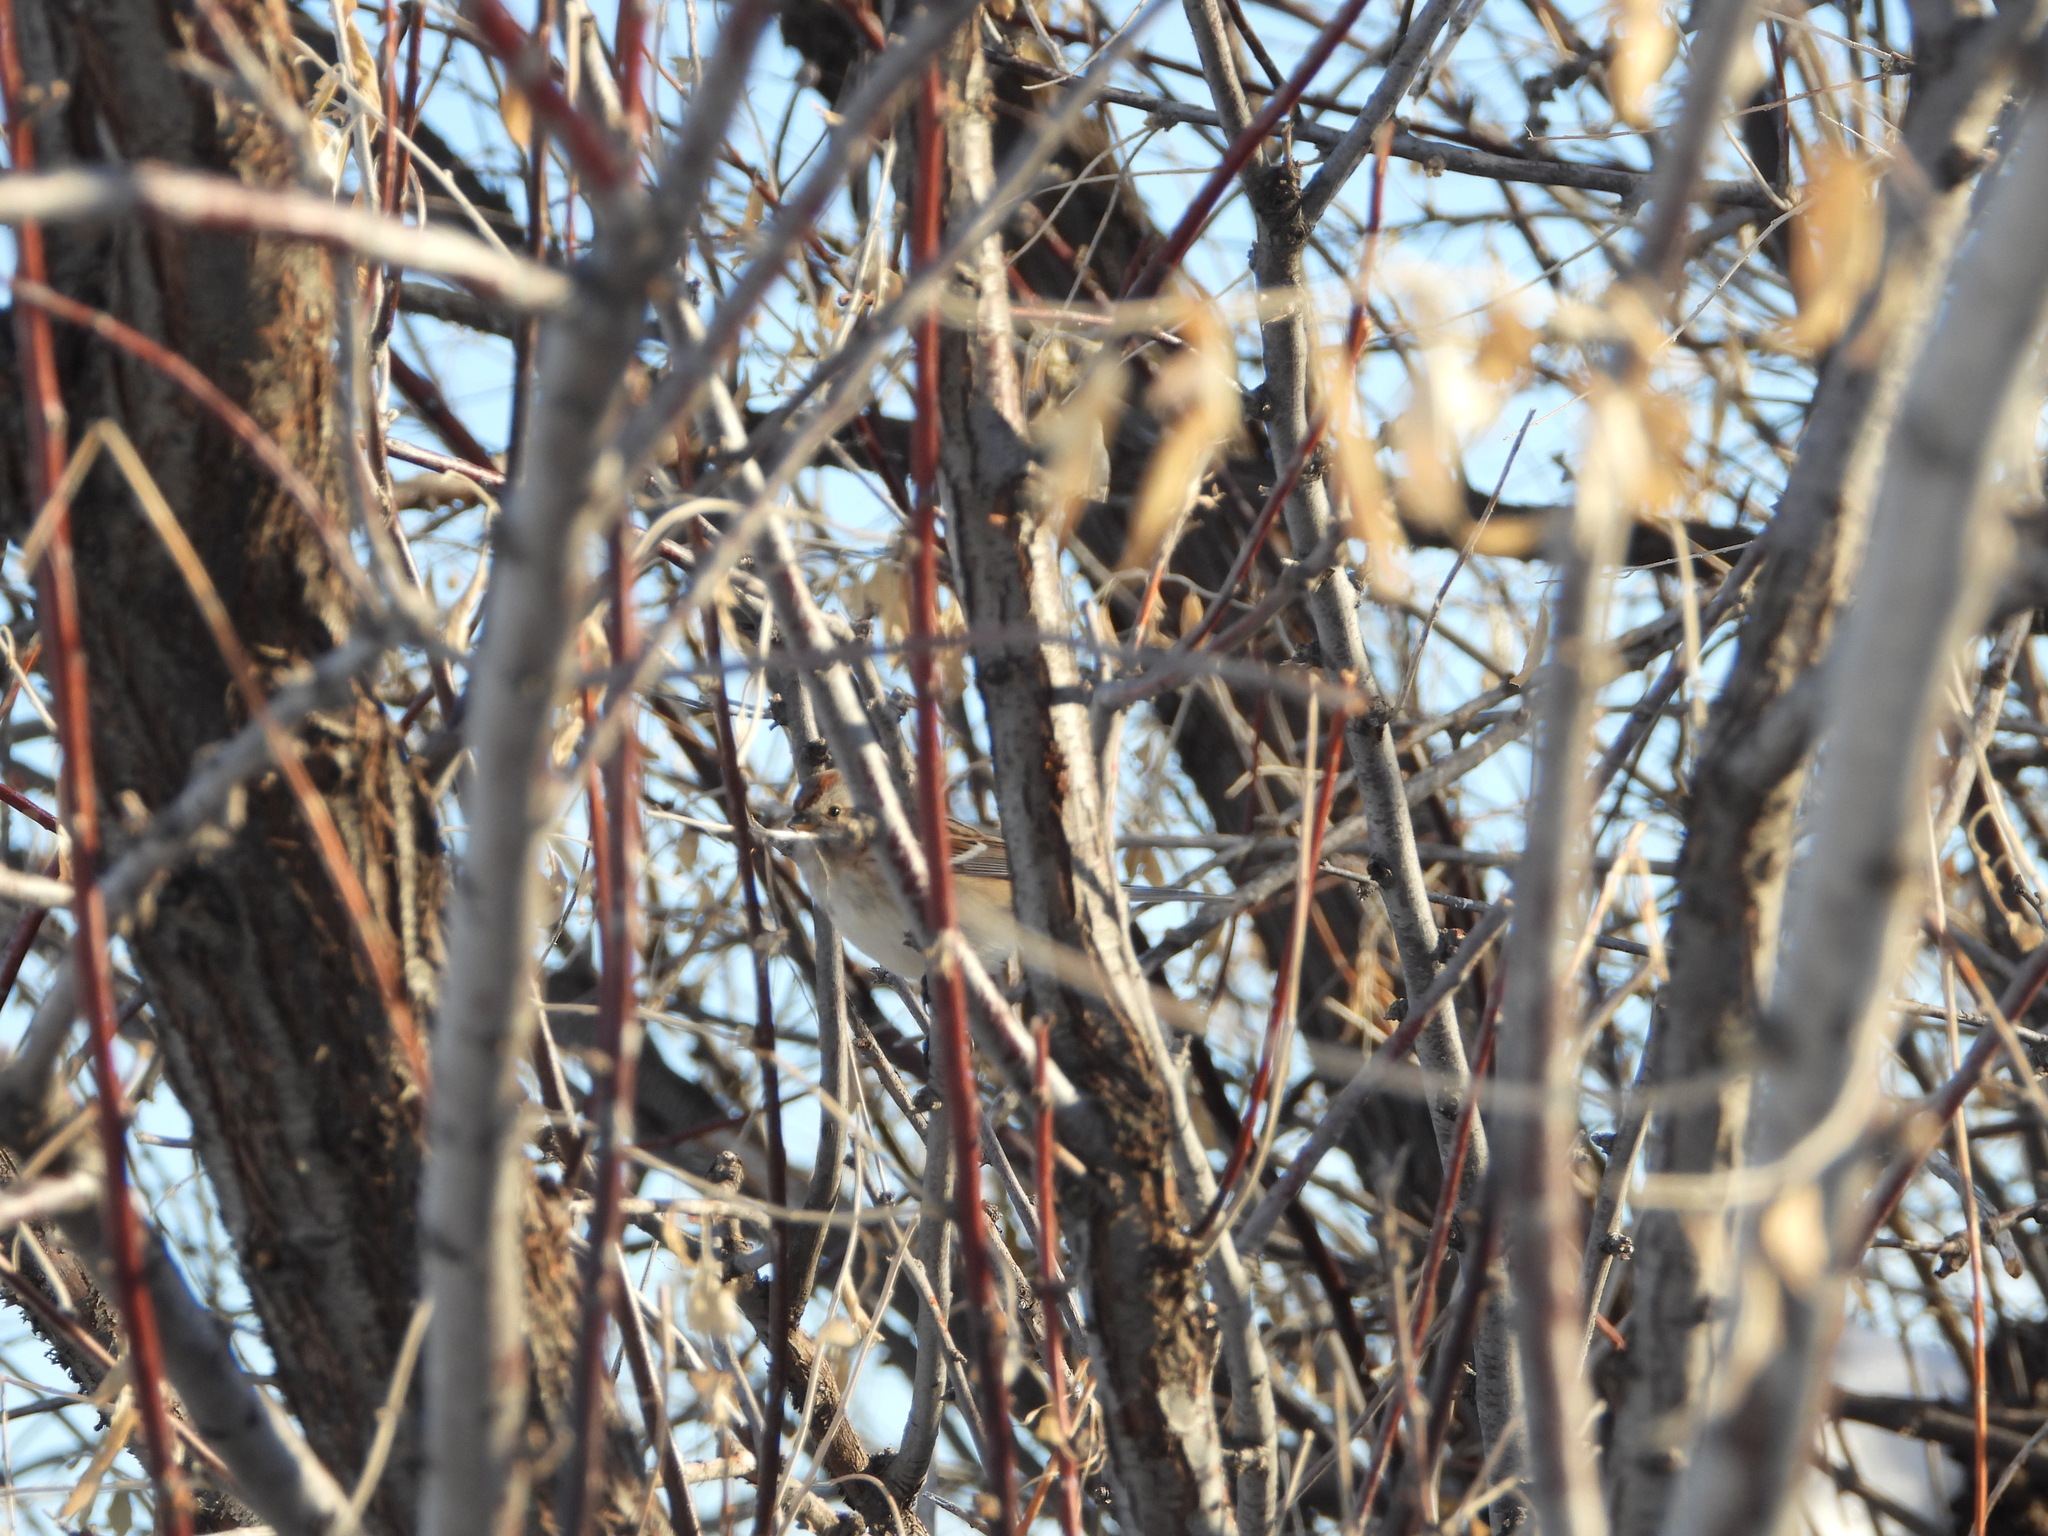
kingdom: Animalia
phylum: Chordata
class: Aves
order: Passeriformes
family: Passerellidae
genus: Spizelloides
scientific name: Spizelloides arborea
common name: American tree sparrow
